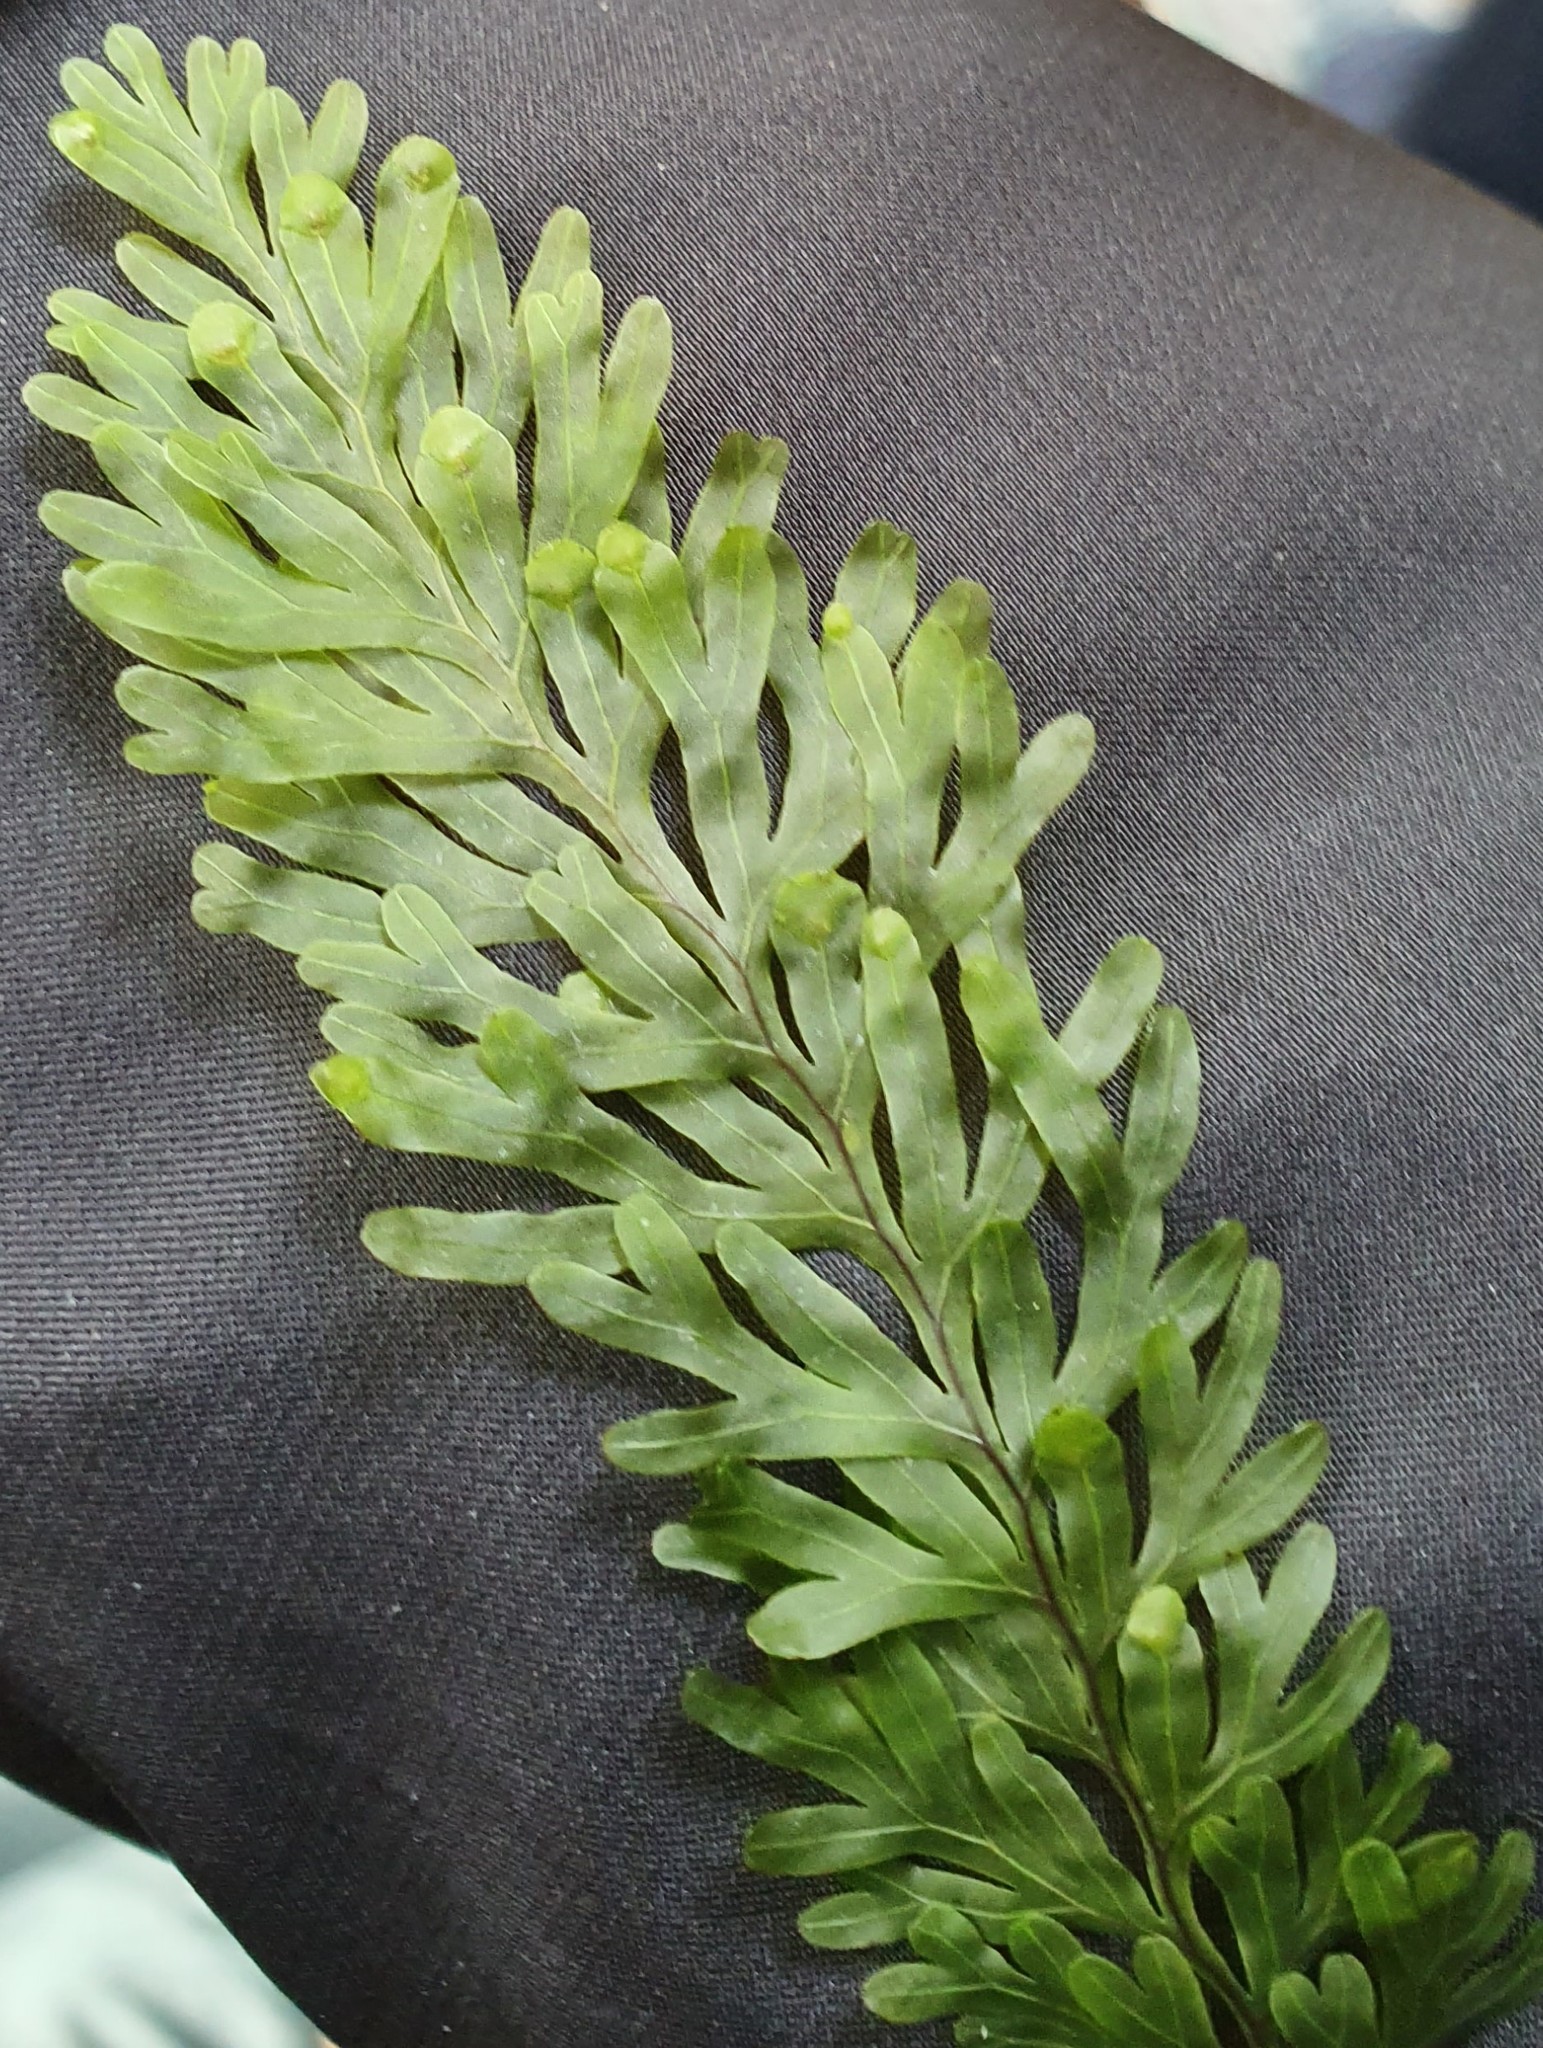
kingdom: Plantae
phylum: Tracheophyta
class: Polypodiopsida
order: Hymenophyllales
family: Hymenophyllaceae
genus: Hymenophyllum
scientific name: Hymenophyllum rarum
